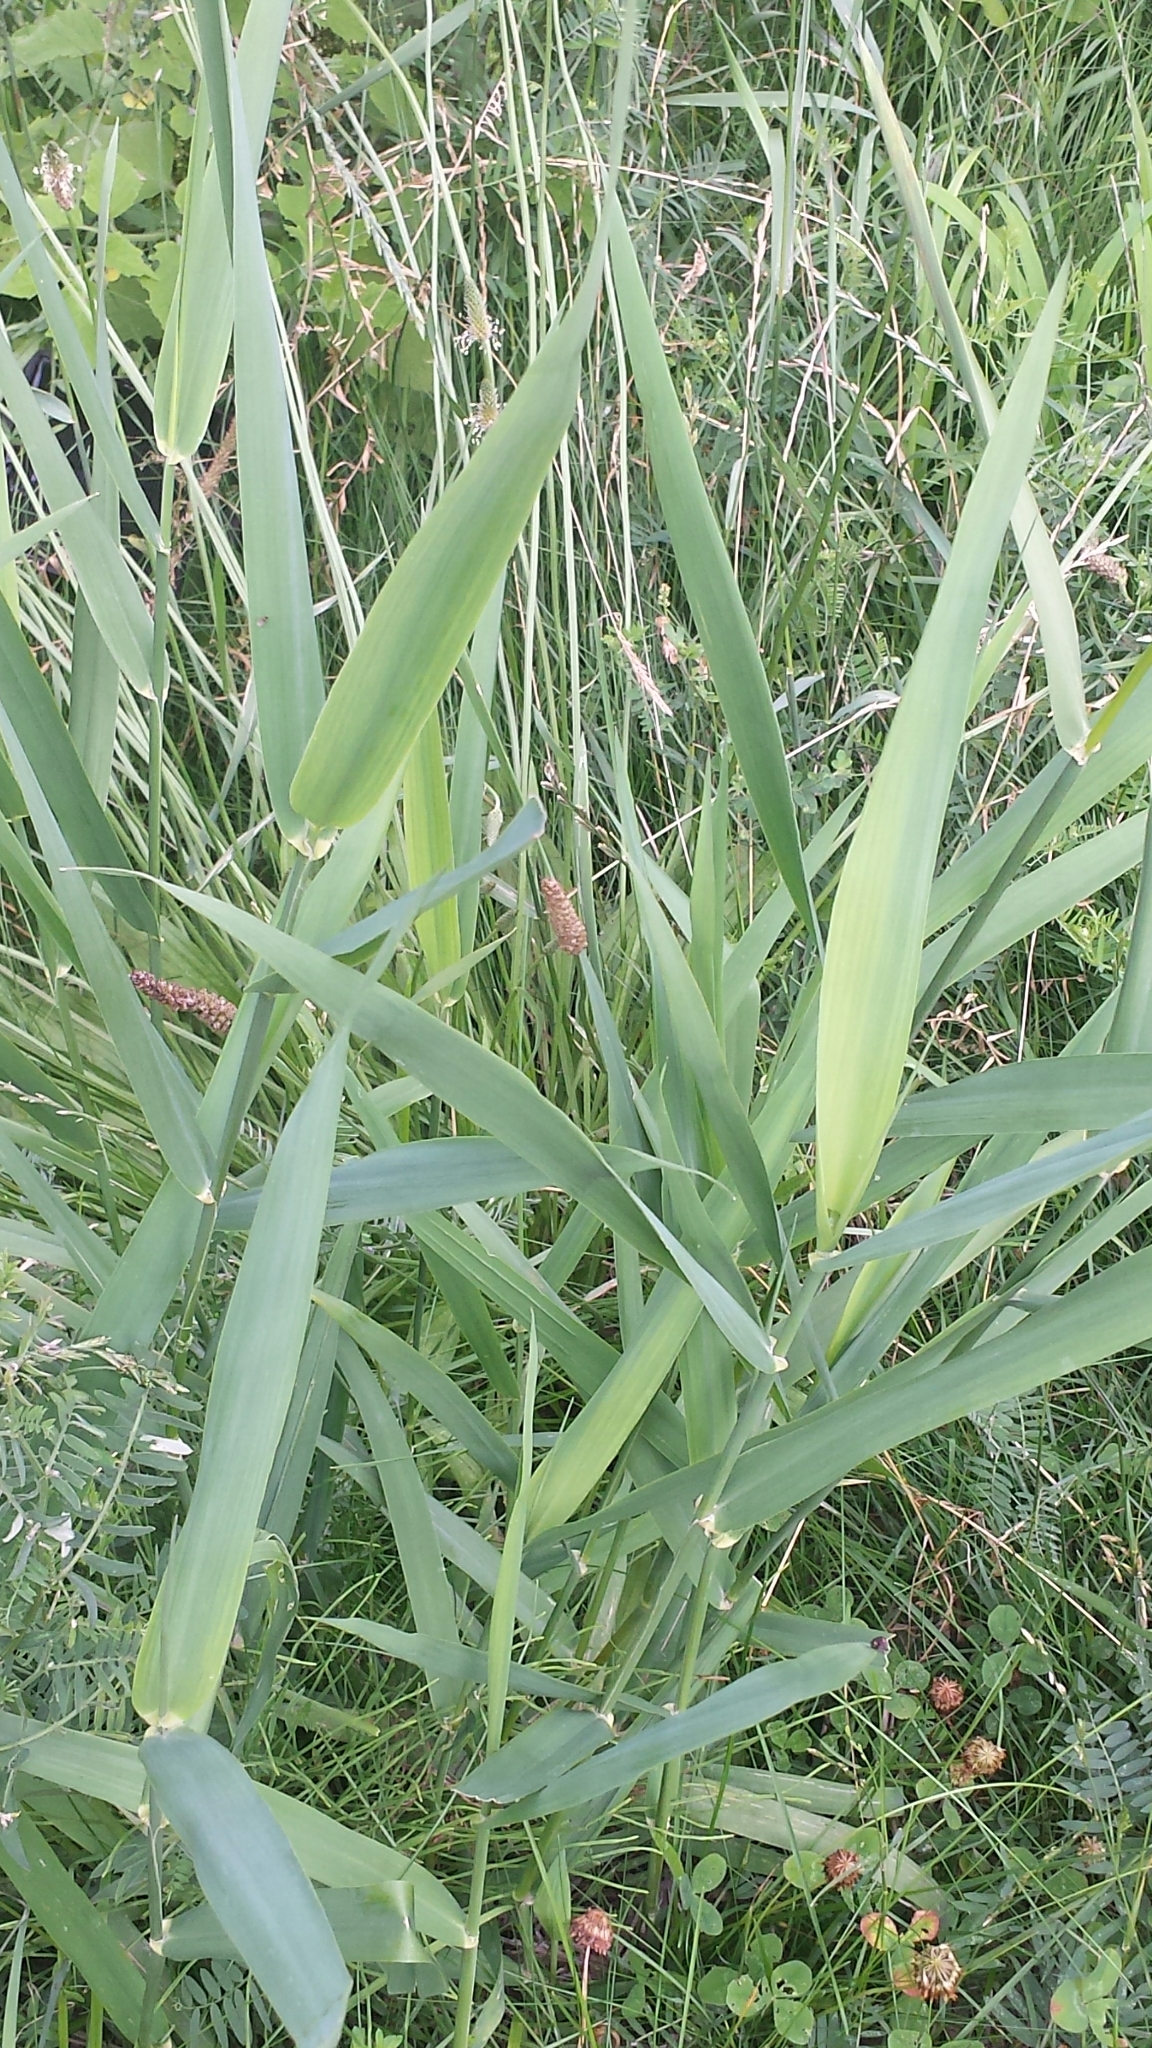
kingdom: Plantae
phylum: Tracheophyta
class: Liliopsida
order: Poales
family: Poaceae
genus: Phalaris
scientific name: Phalaris arundinacea
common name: Reed canary-grass
